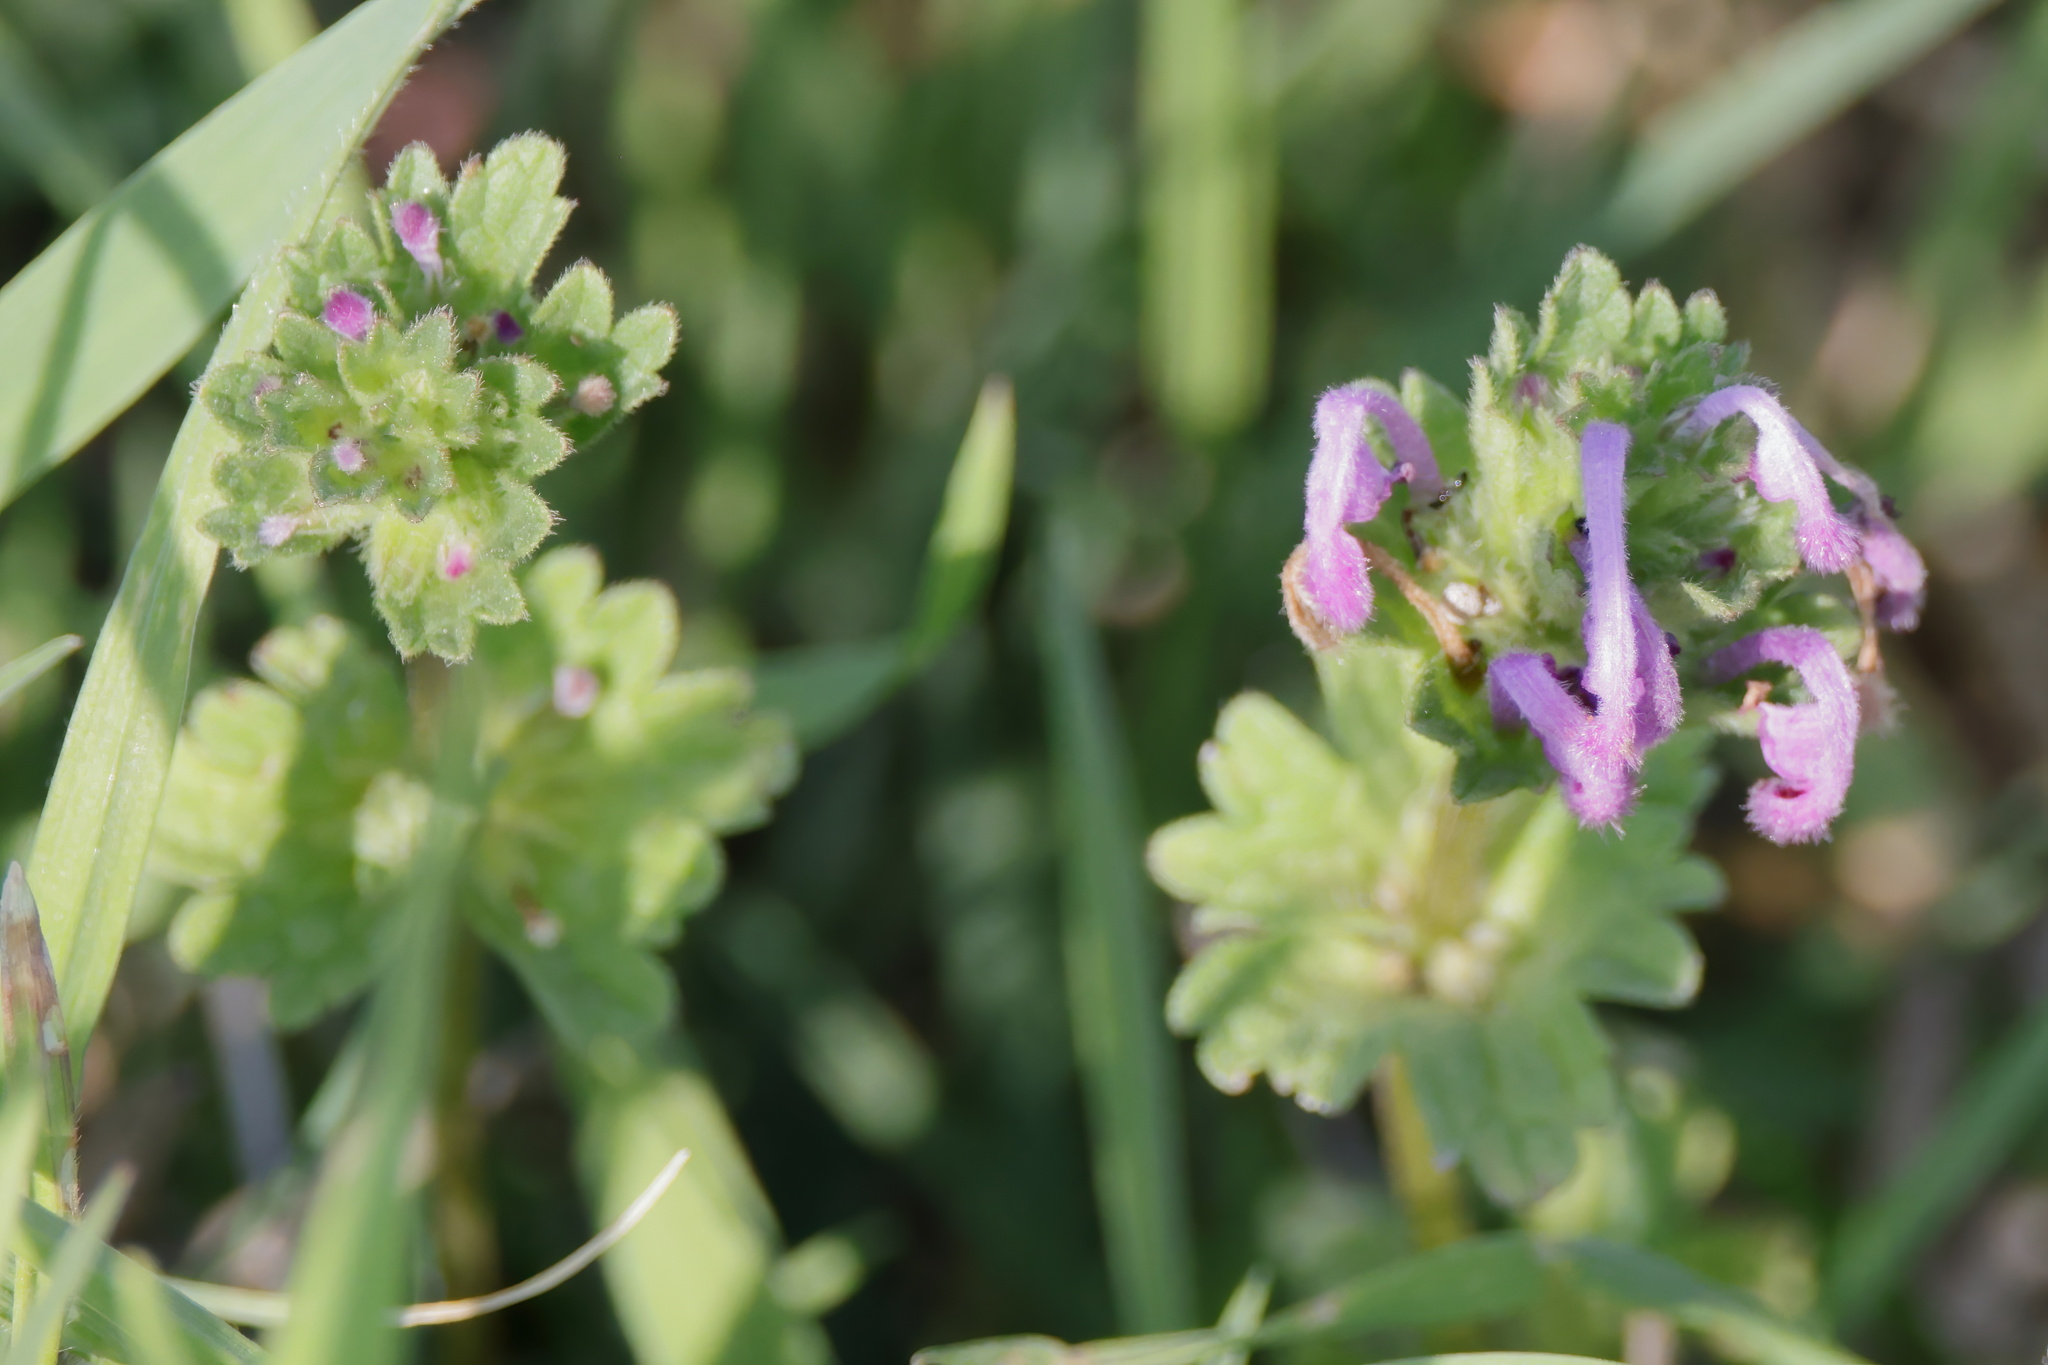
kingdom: Plantae
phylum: Tracheophyta
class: Magnoliopsida
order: Lamiales
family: Lamiaceae
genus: Lamium
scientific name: Lamium amplexicaule
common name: Henbit dead-nettle
